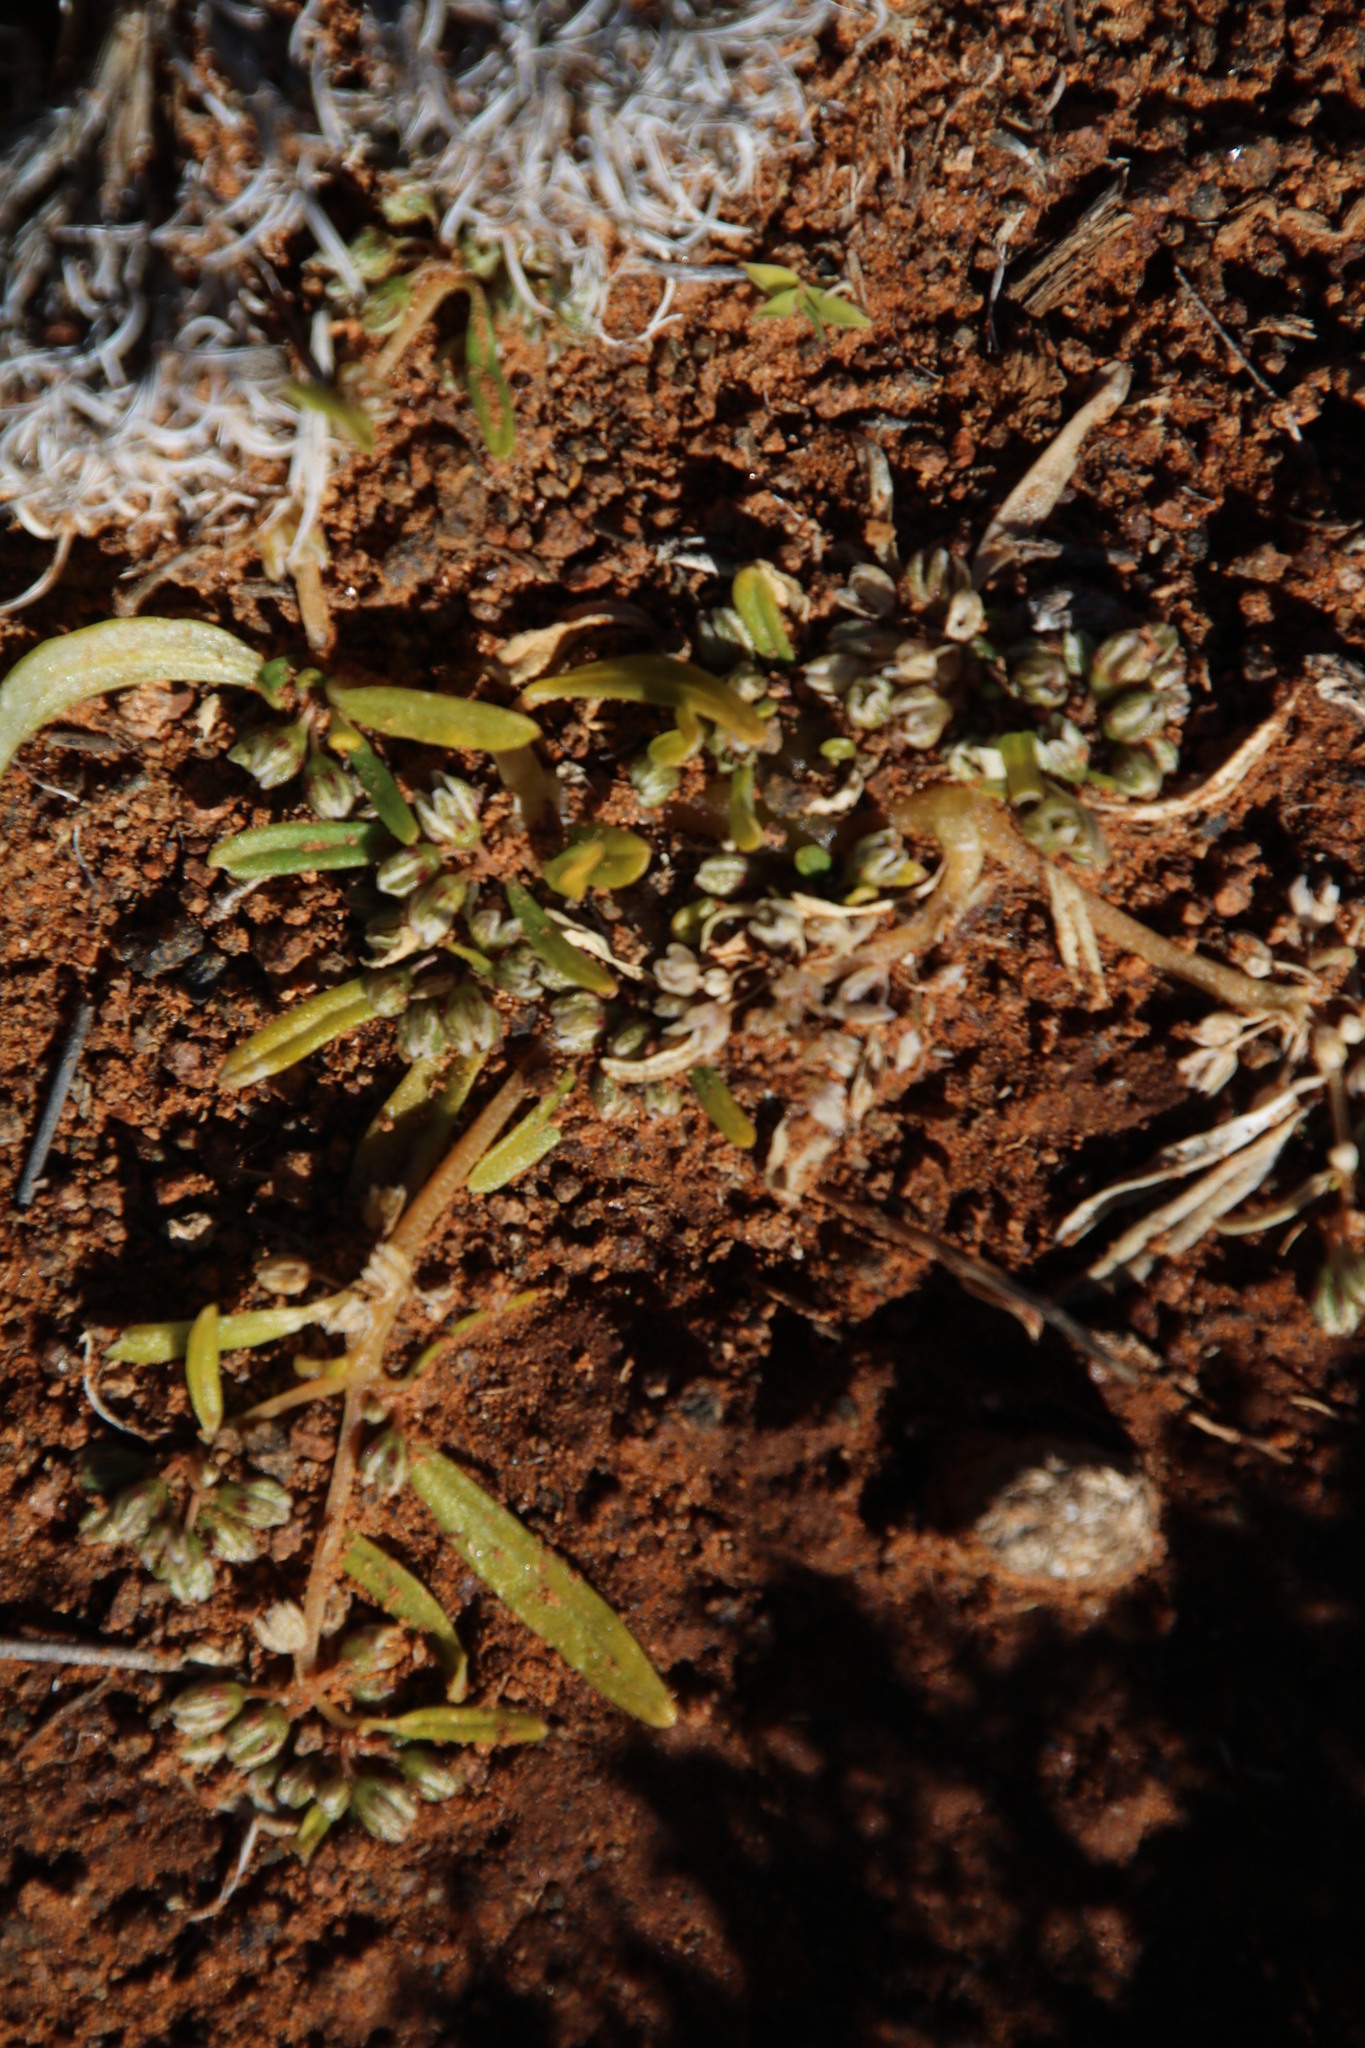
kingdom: Plantae
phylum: Tracheophyta
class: Magnoliopsida
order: Caryophyllales
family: Gisekiaceae
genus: Gisekia
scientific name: Gisekia pharnaceoides
